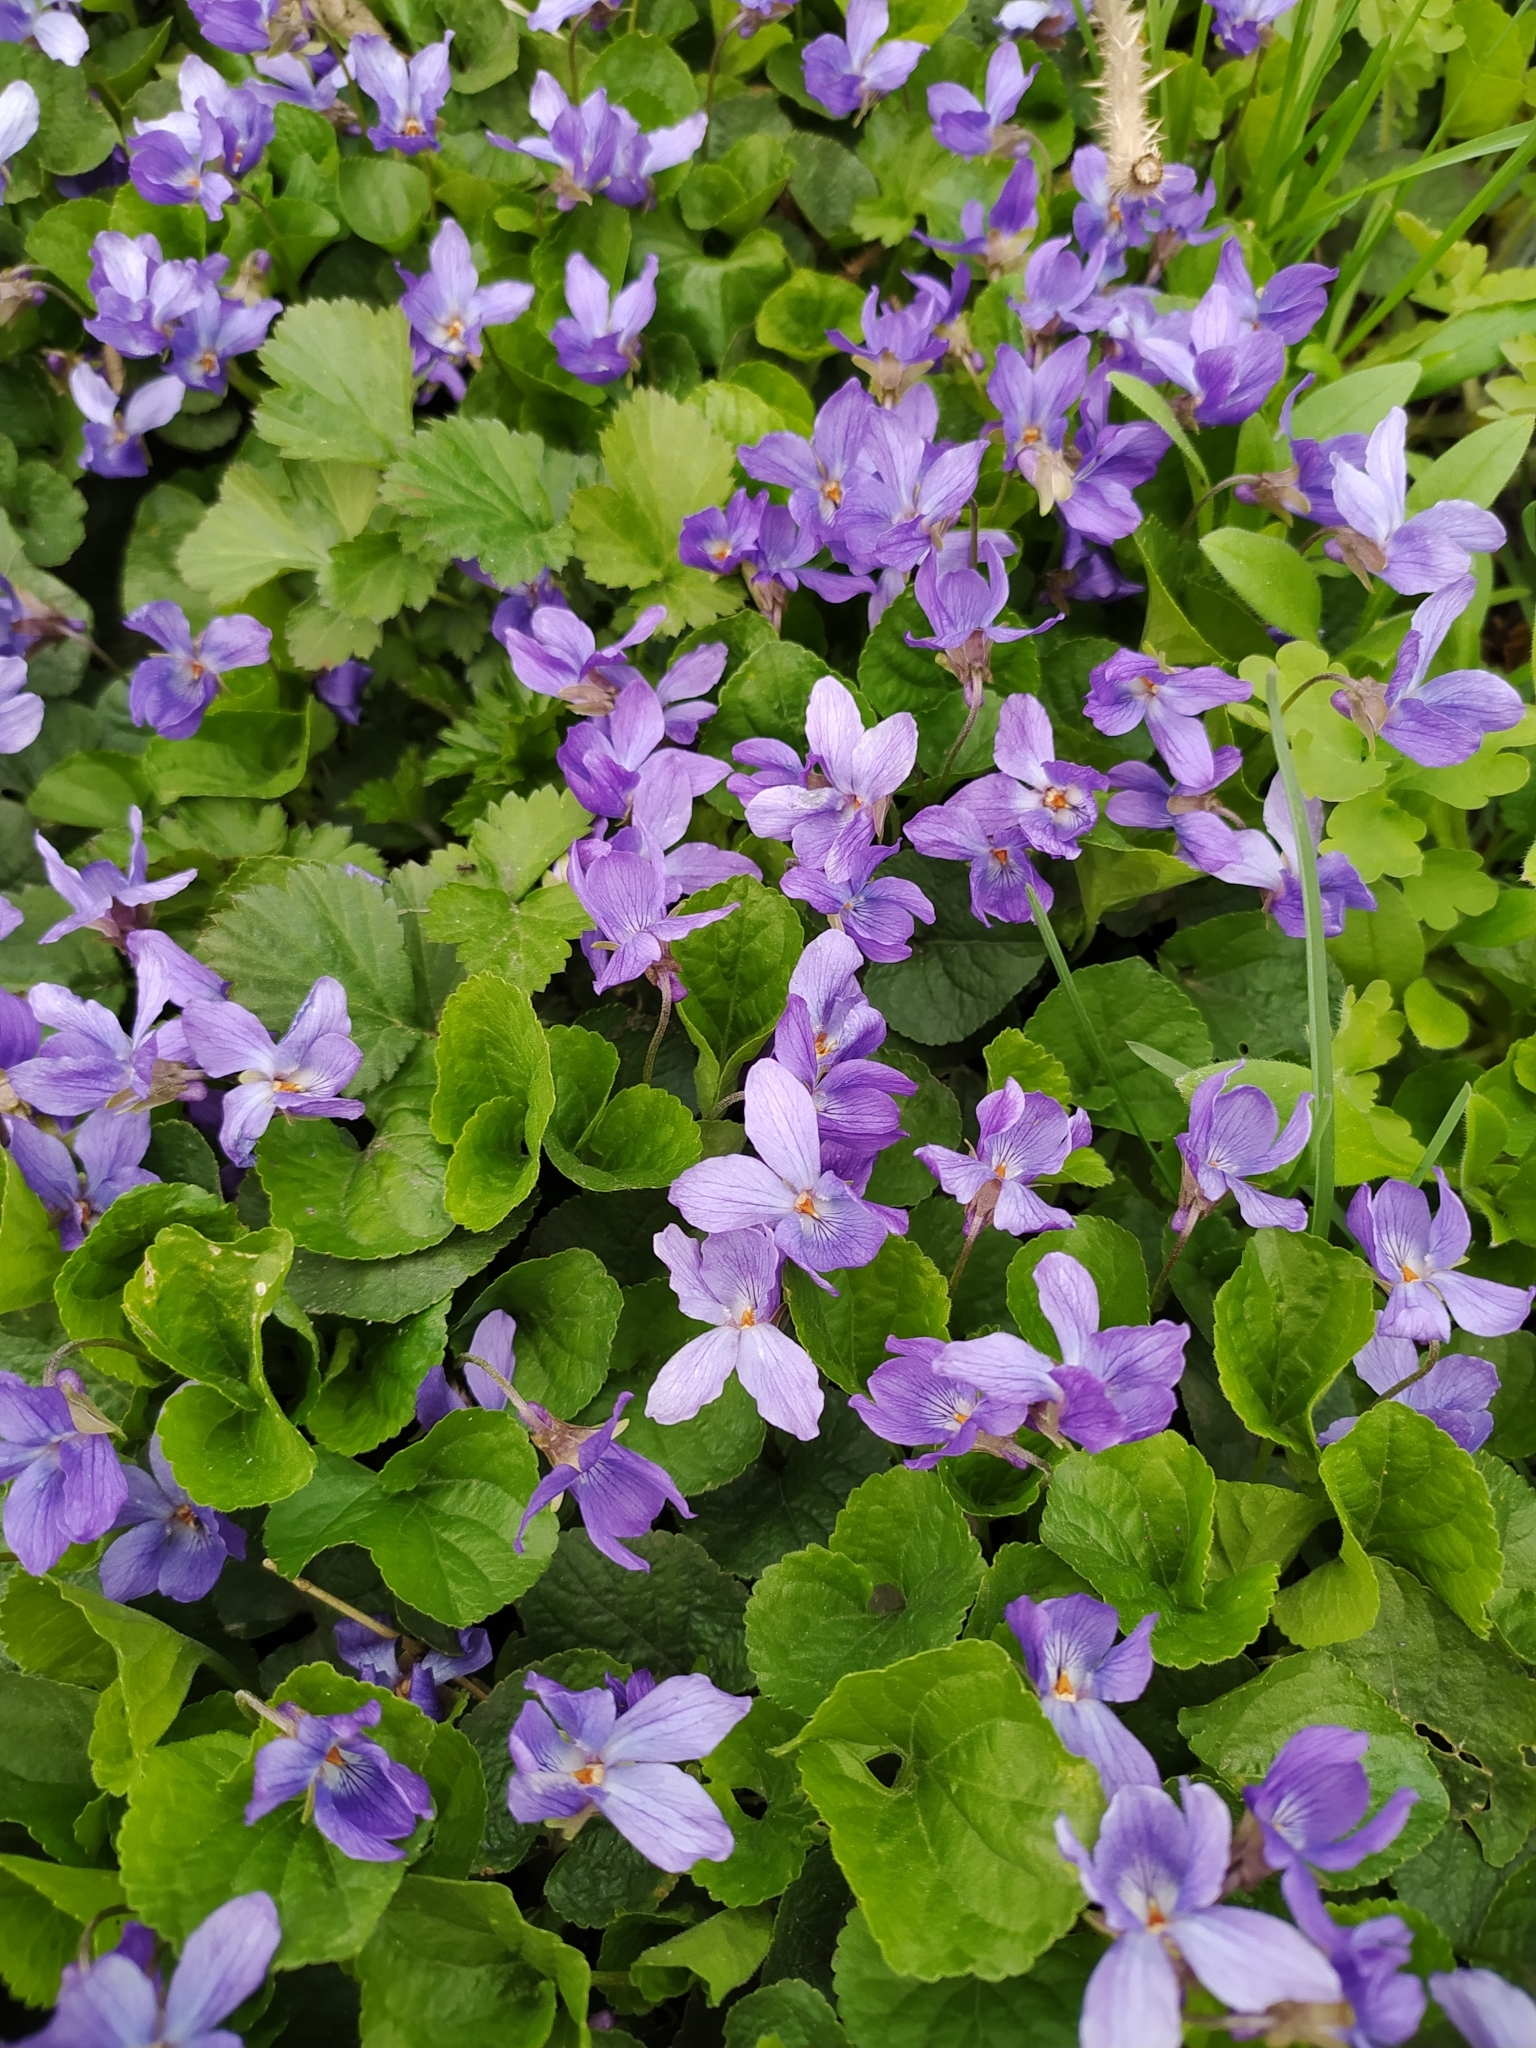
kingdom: Plantae
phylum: Tracheophyta
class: Magnoliopsida
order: Malpighiales
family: Violaceae
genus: Viola
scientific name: Viola odorata
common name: Sweet violet
